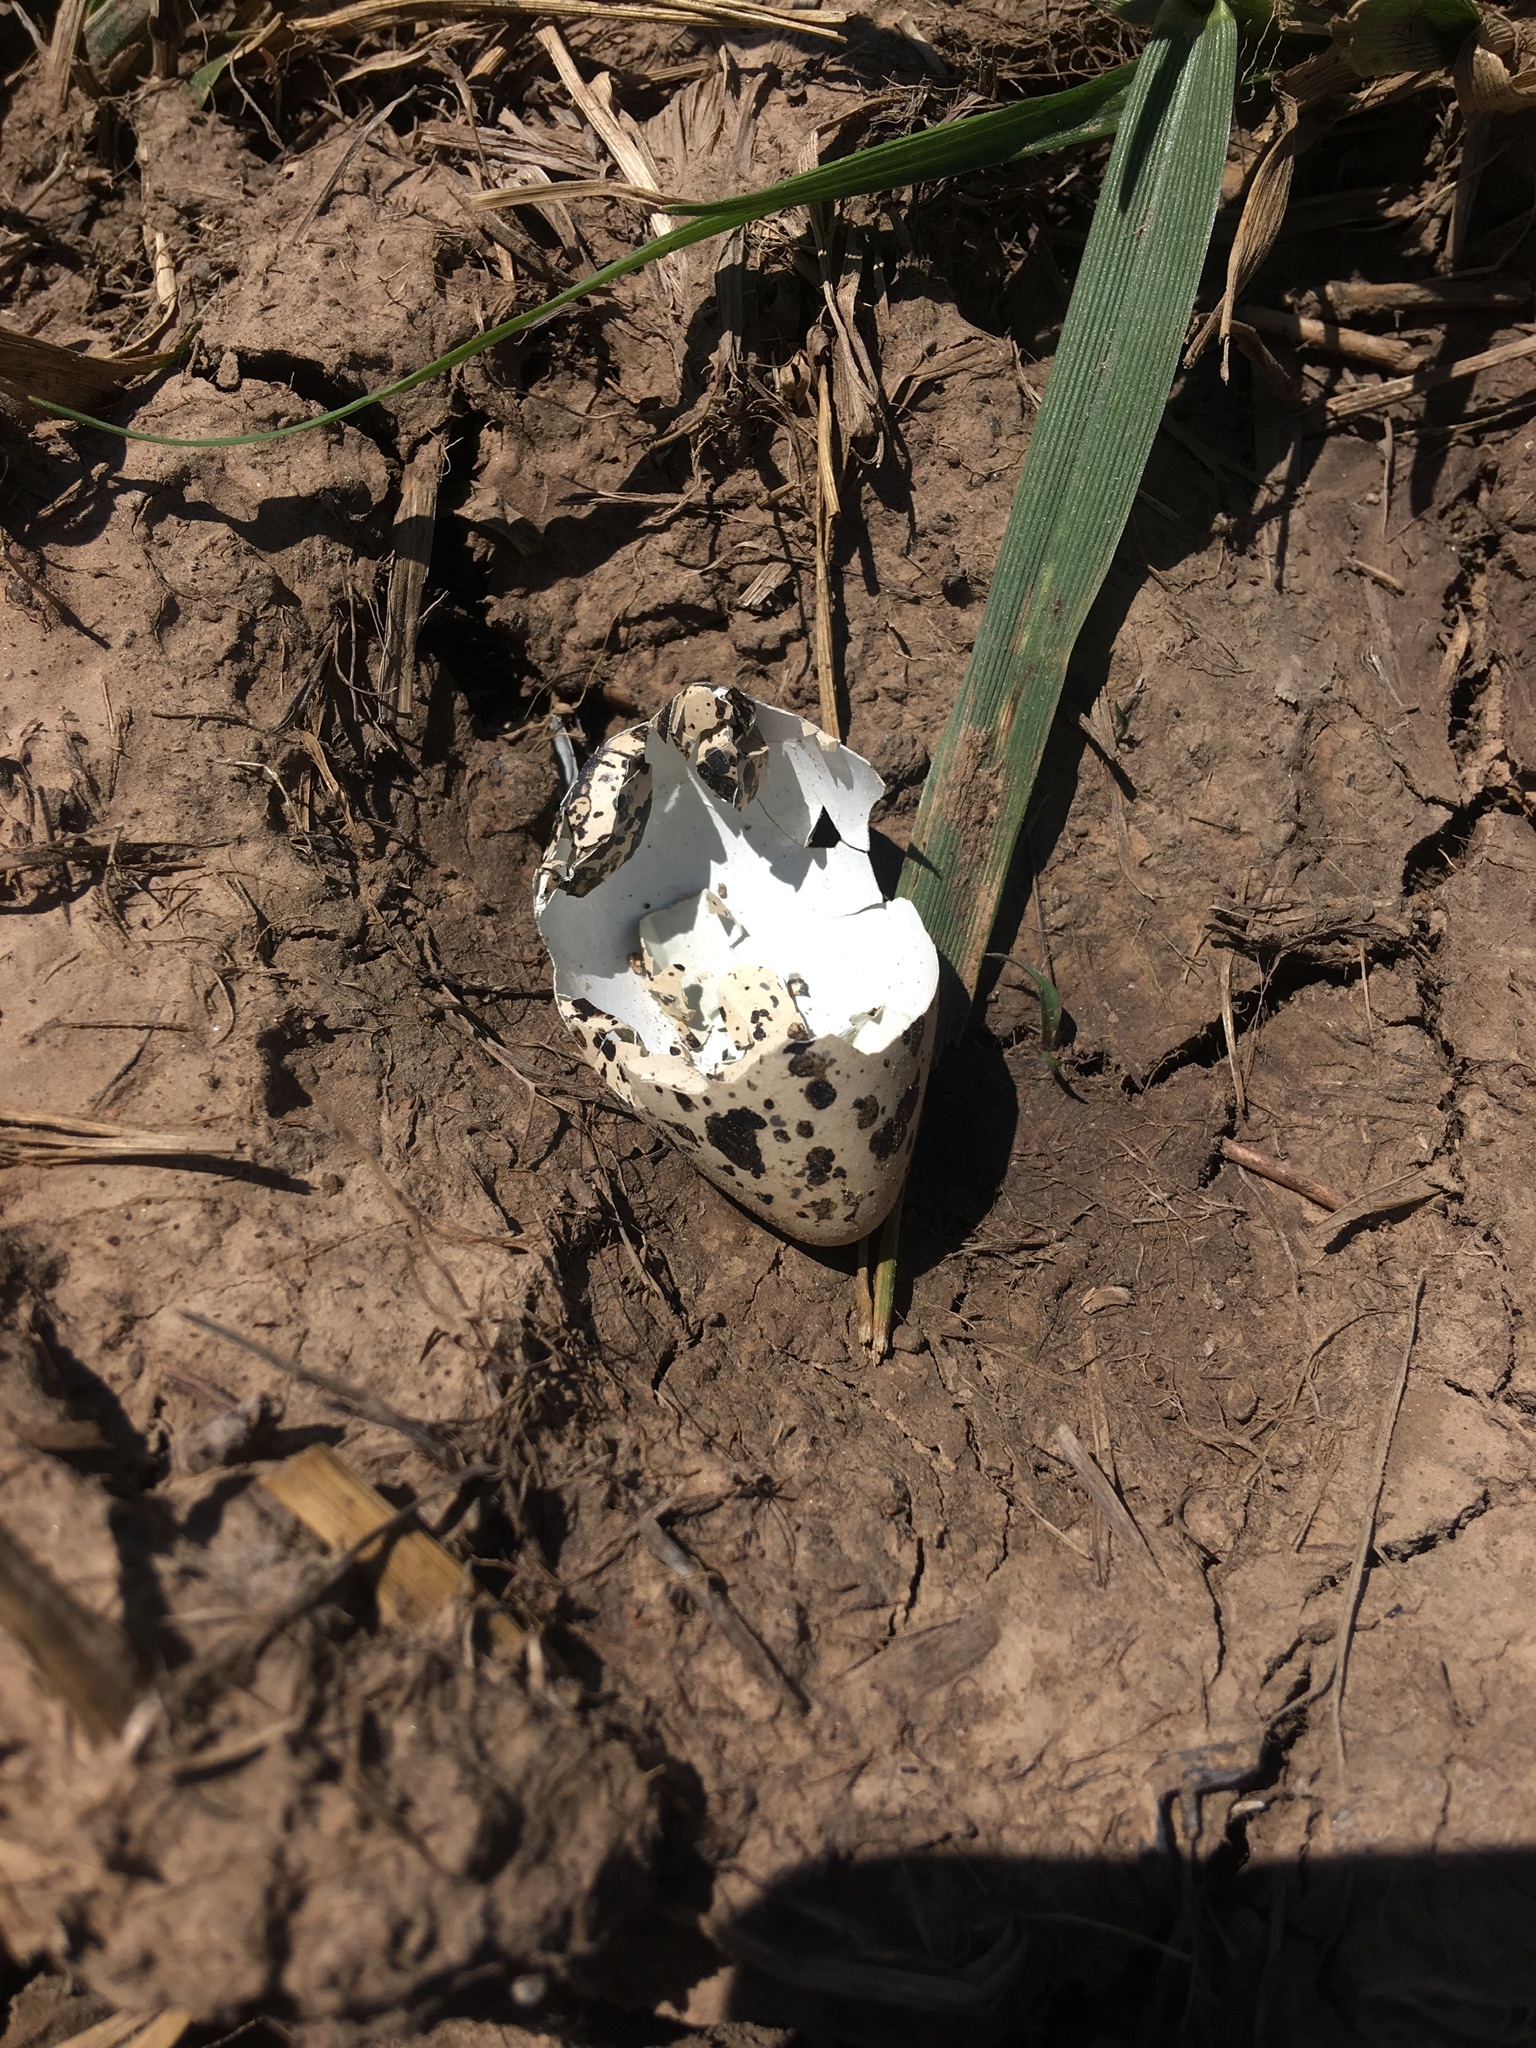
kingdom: Animalia
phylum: Chordata
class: Aves
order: Charadriiformes
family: Charadriidae
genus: Charadrius
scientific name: Charadrius vociferus
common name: Killdeer
